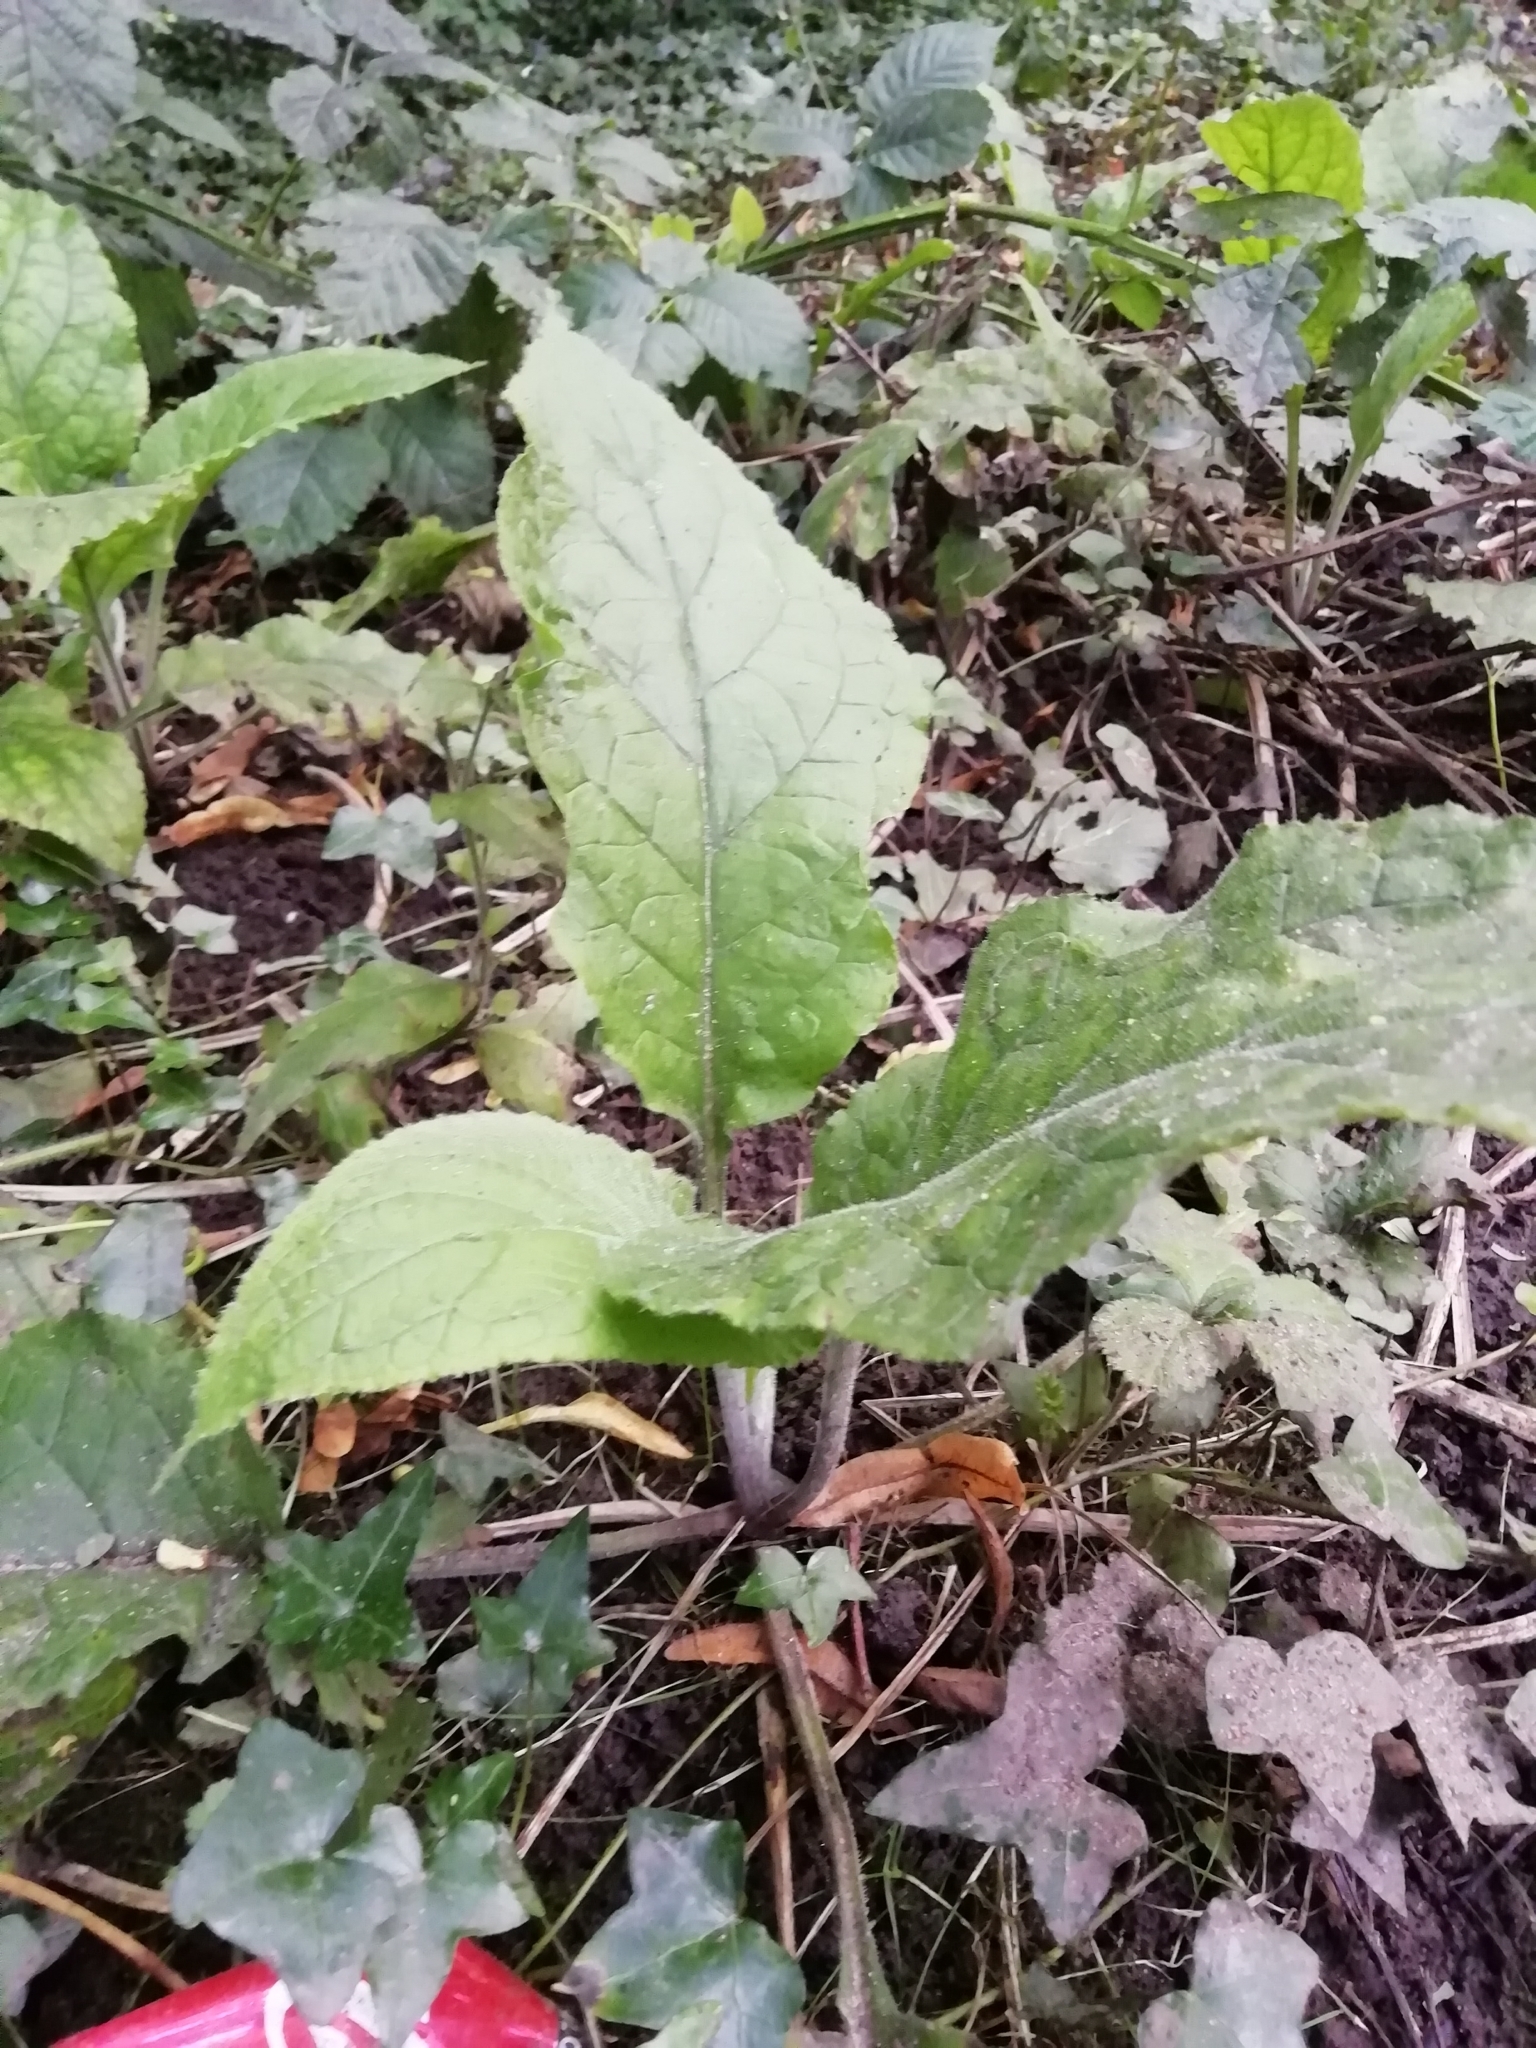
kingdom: Plantae
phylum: Tracheophyta
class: Magnoliopsida
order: Lamiales
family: Plantaginaceae
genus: Digitalis
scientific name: Digitalis purpurea
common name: Foxglove
